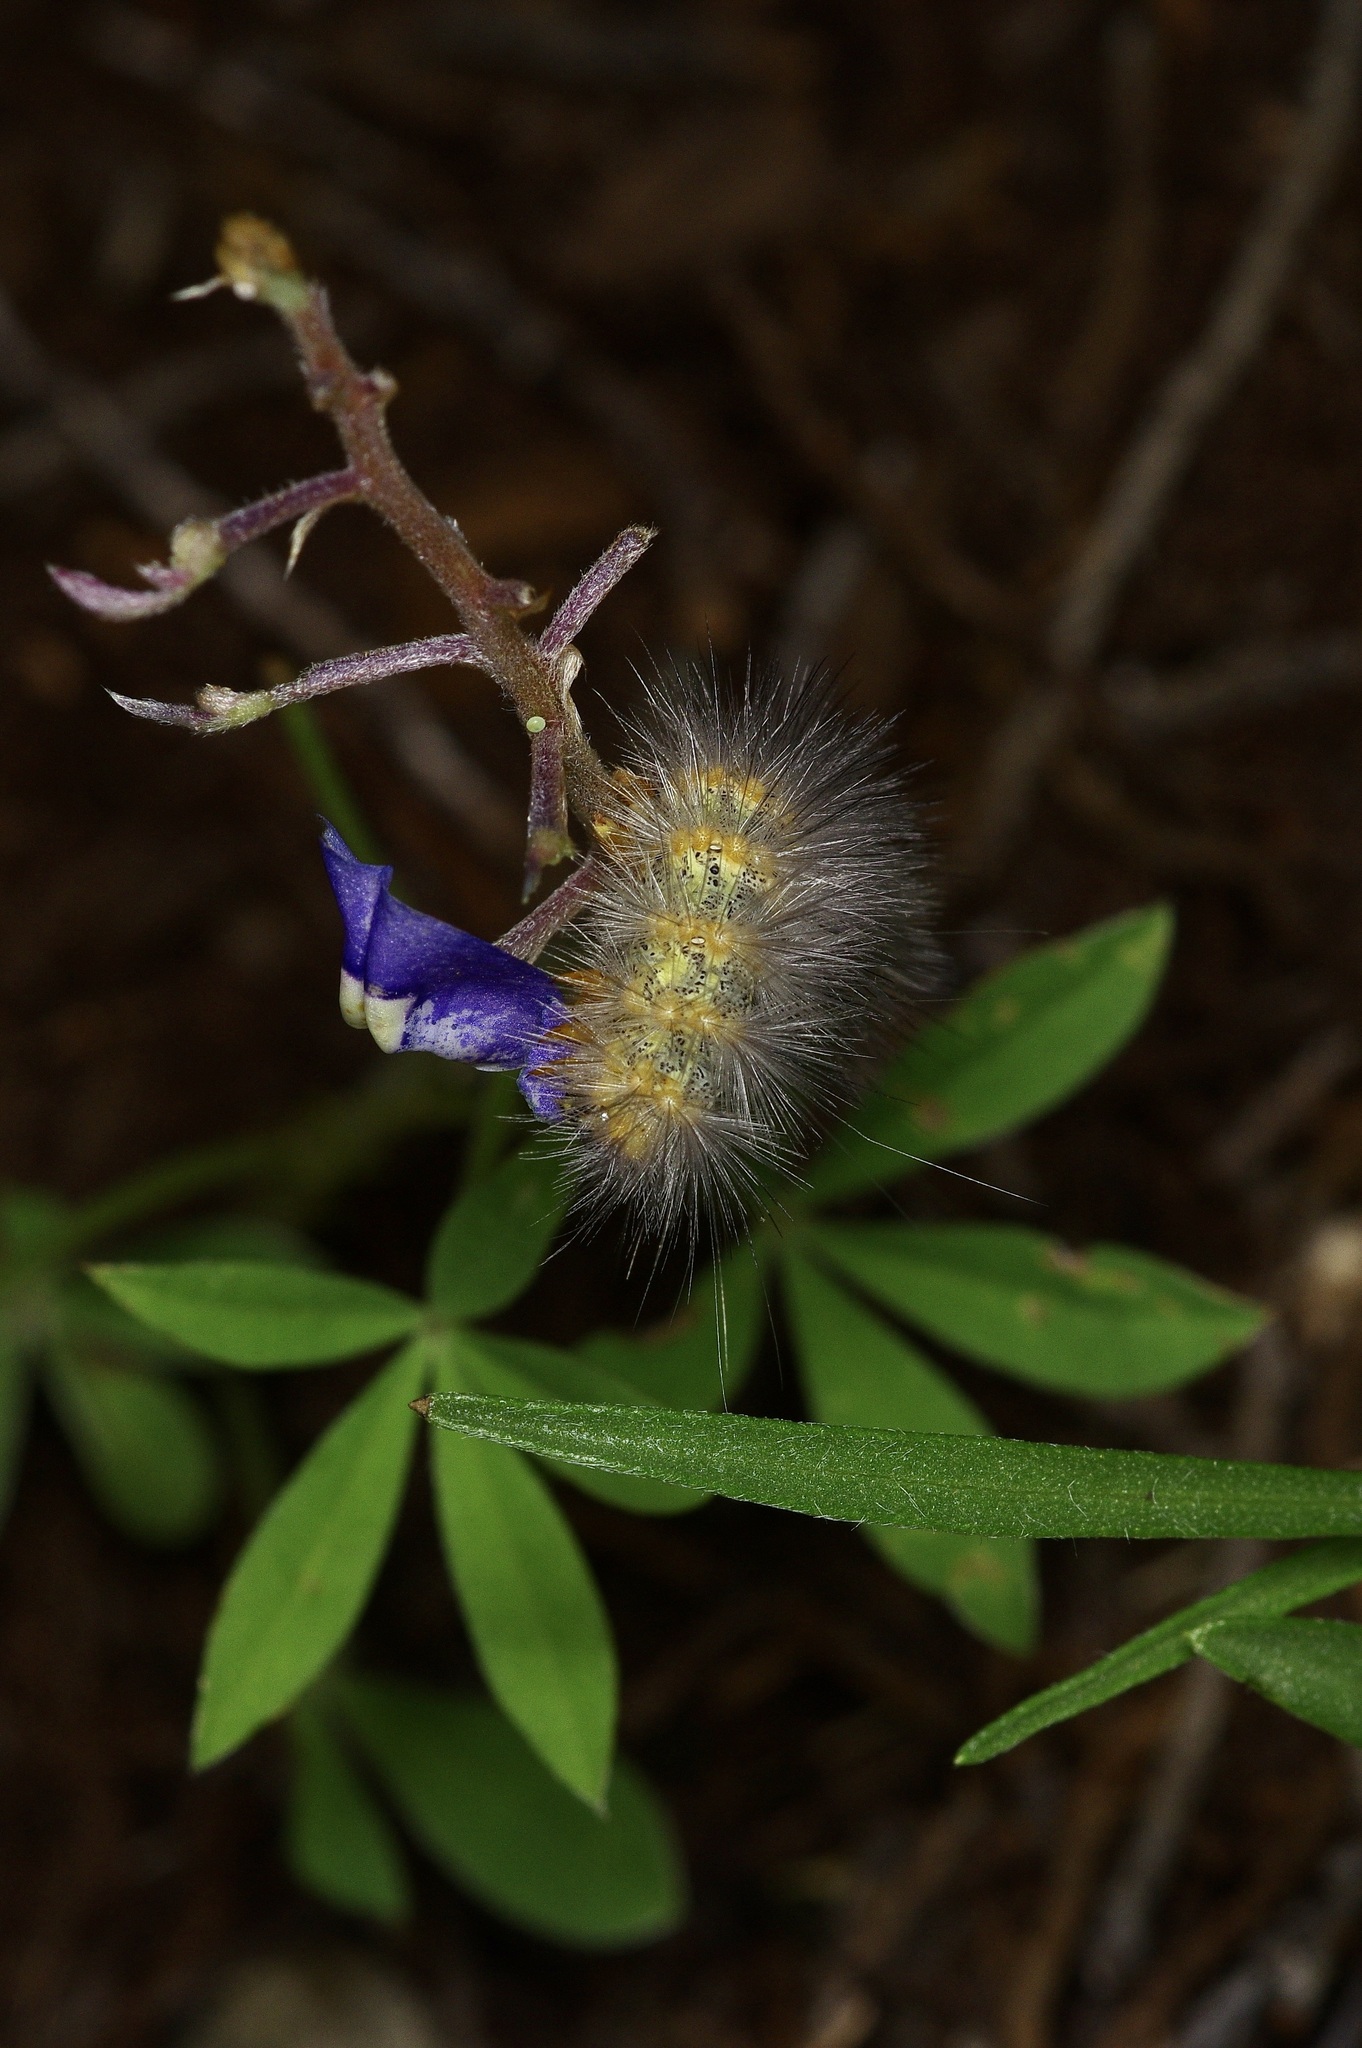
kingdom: Animalia
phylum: Arthropoda
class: Insecta
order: Lepidoptera
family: Erebidae
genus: Estigmene
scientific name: Estigmene acrea
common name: Salt marsh moth
